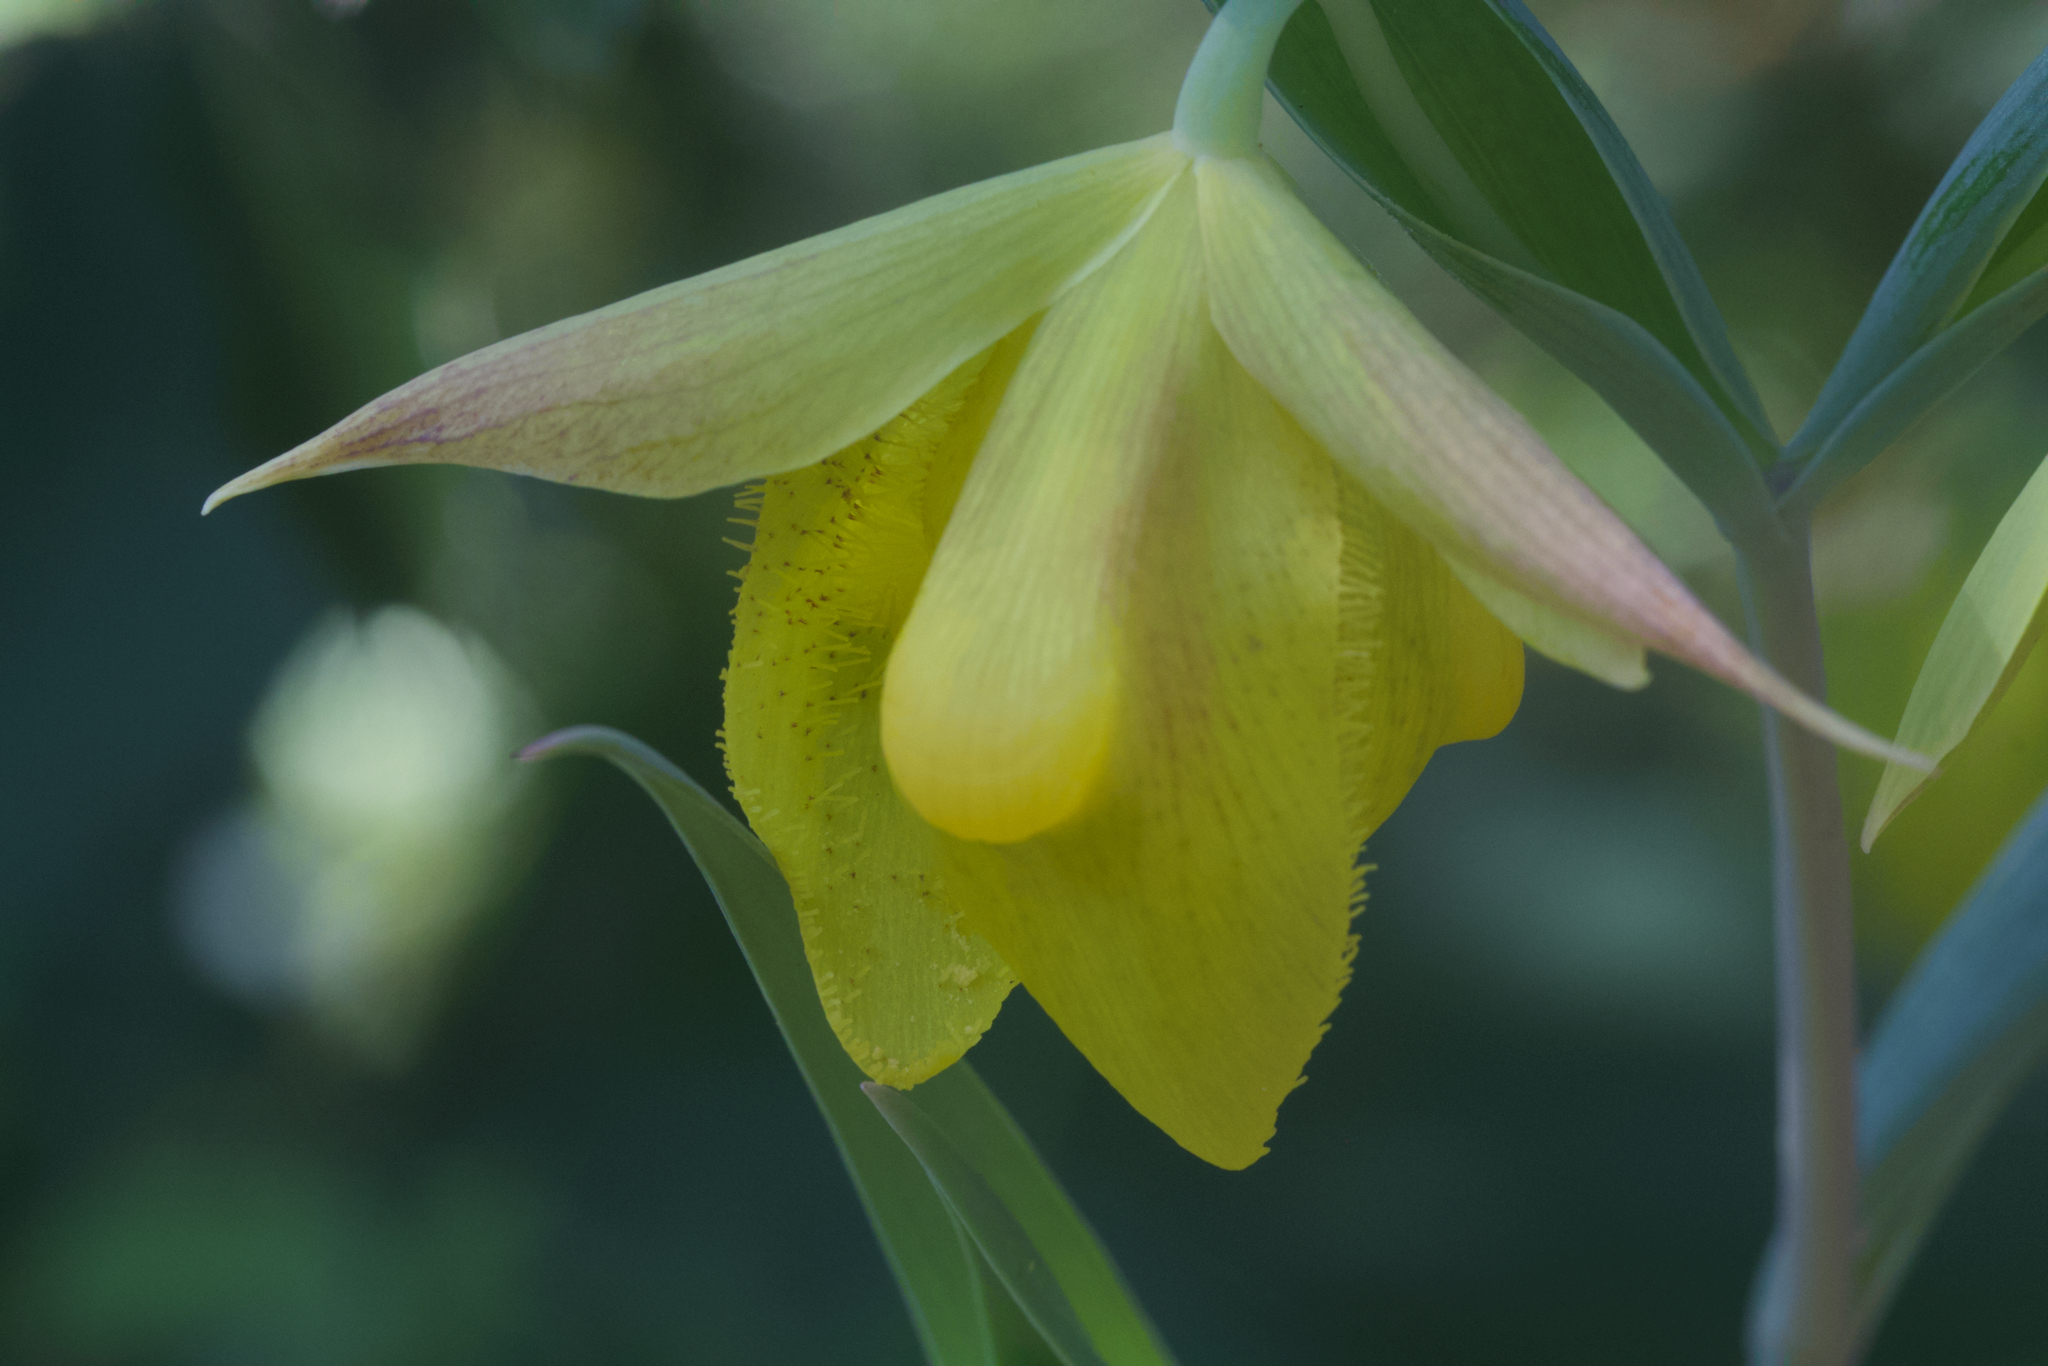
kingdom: Plantae
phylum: Tracheophyta
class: Liliopsida
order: Liliales
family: Liliaceae
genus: Calochortus
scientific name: Calochortus pulchellus
